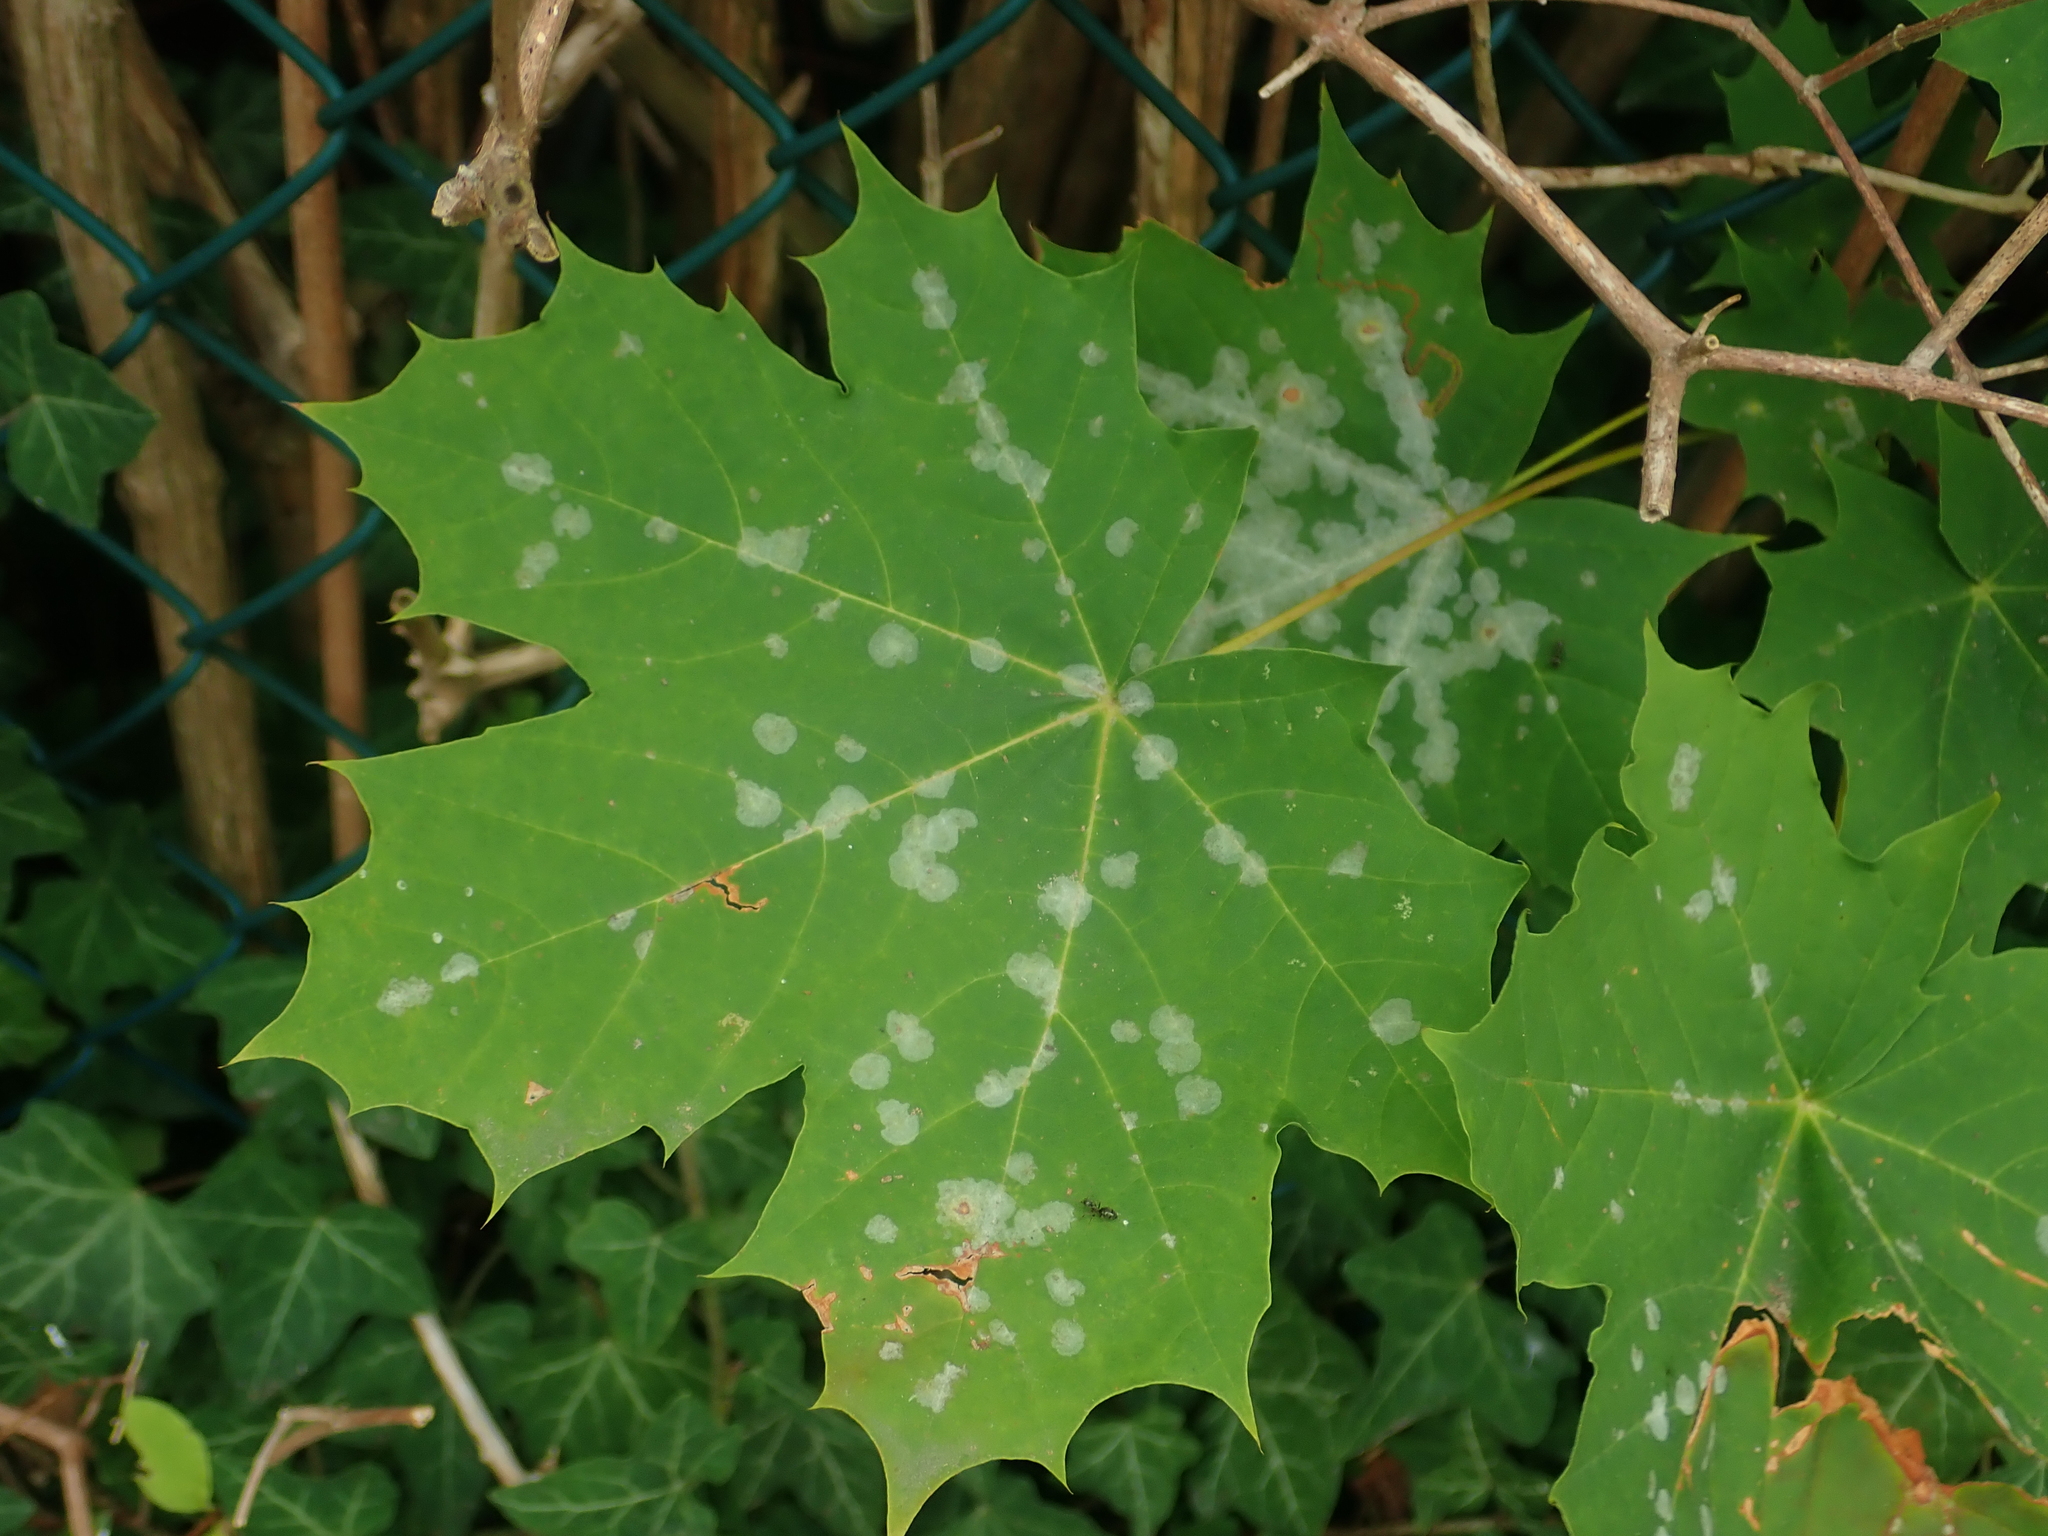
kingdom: Plantae
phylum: Tracheophyta
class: Magnoliopsida
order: Sapindales
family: Sapindaceae
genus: Acer
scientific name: Acer platanoides
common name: Norway maple
